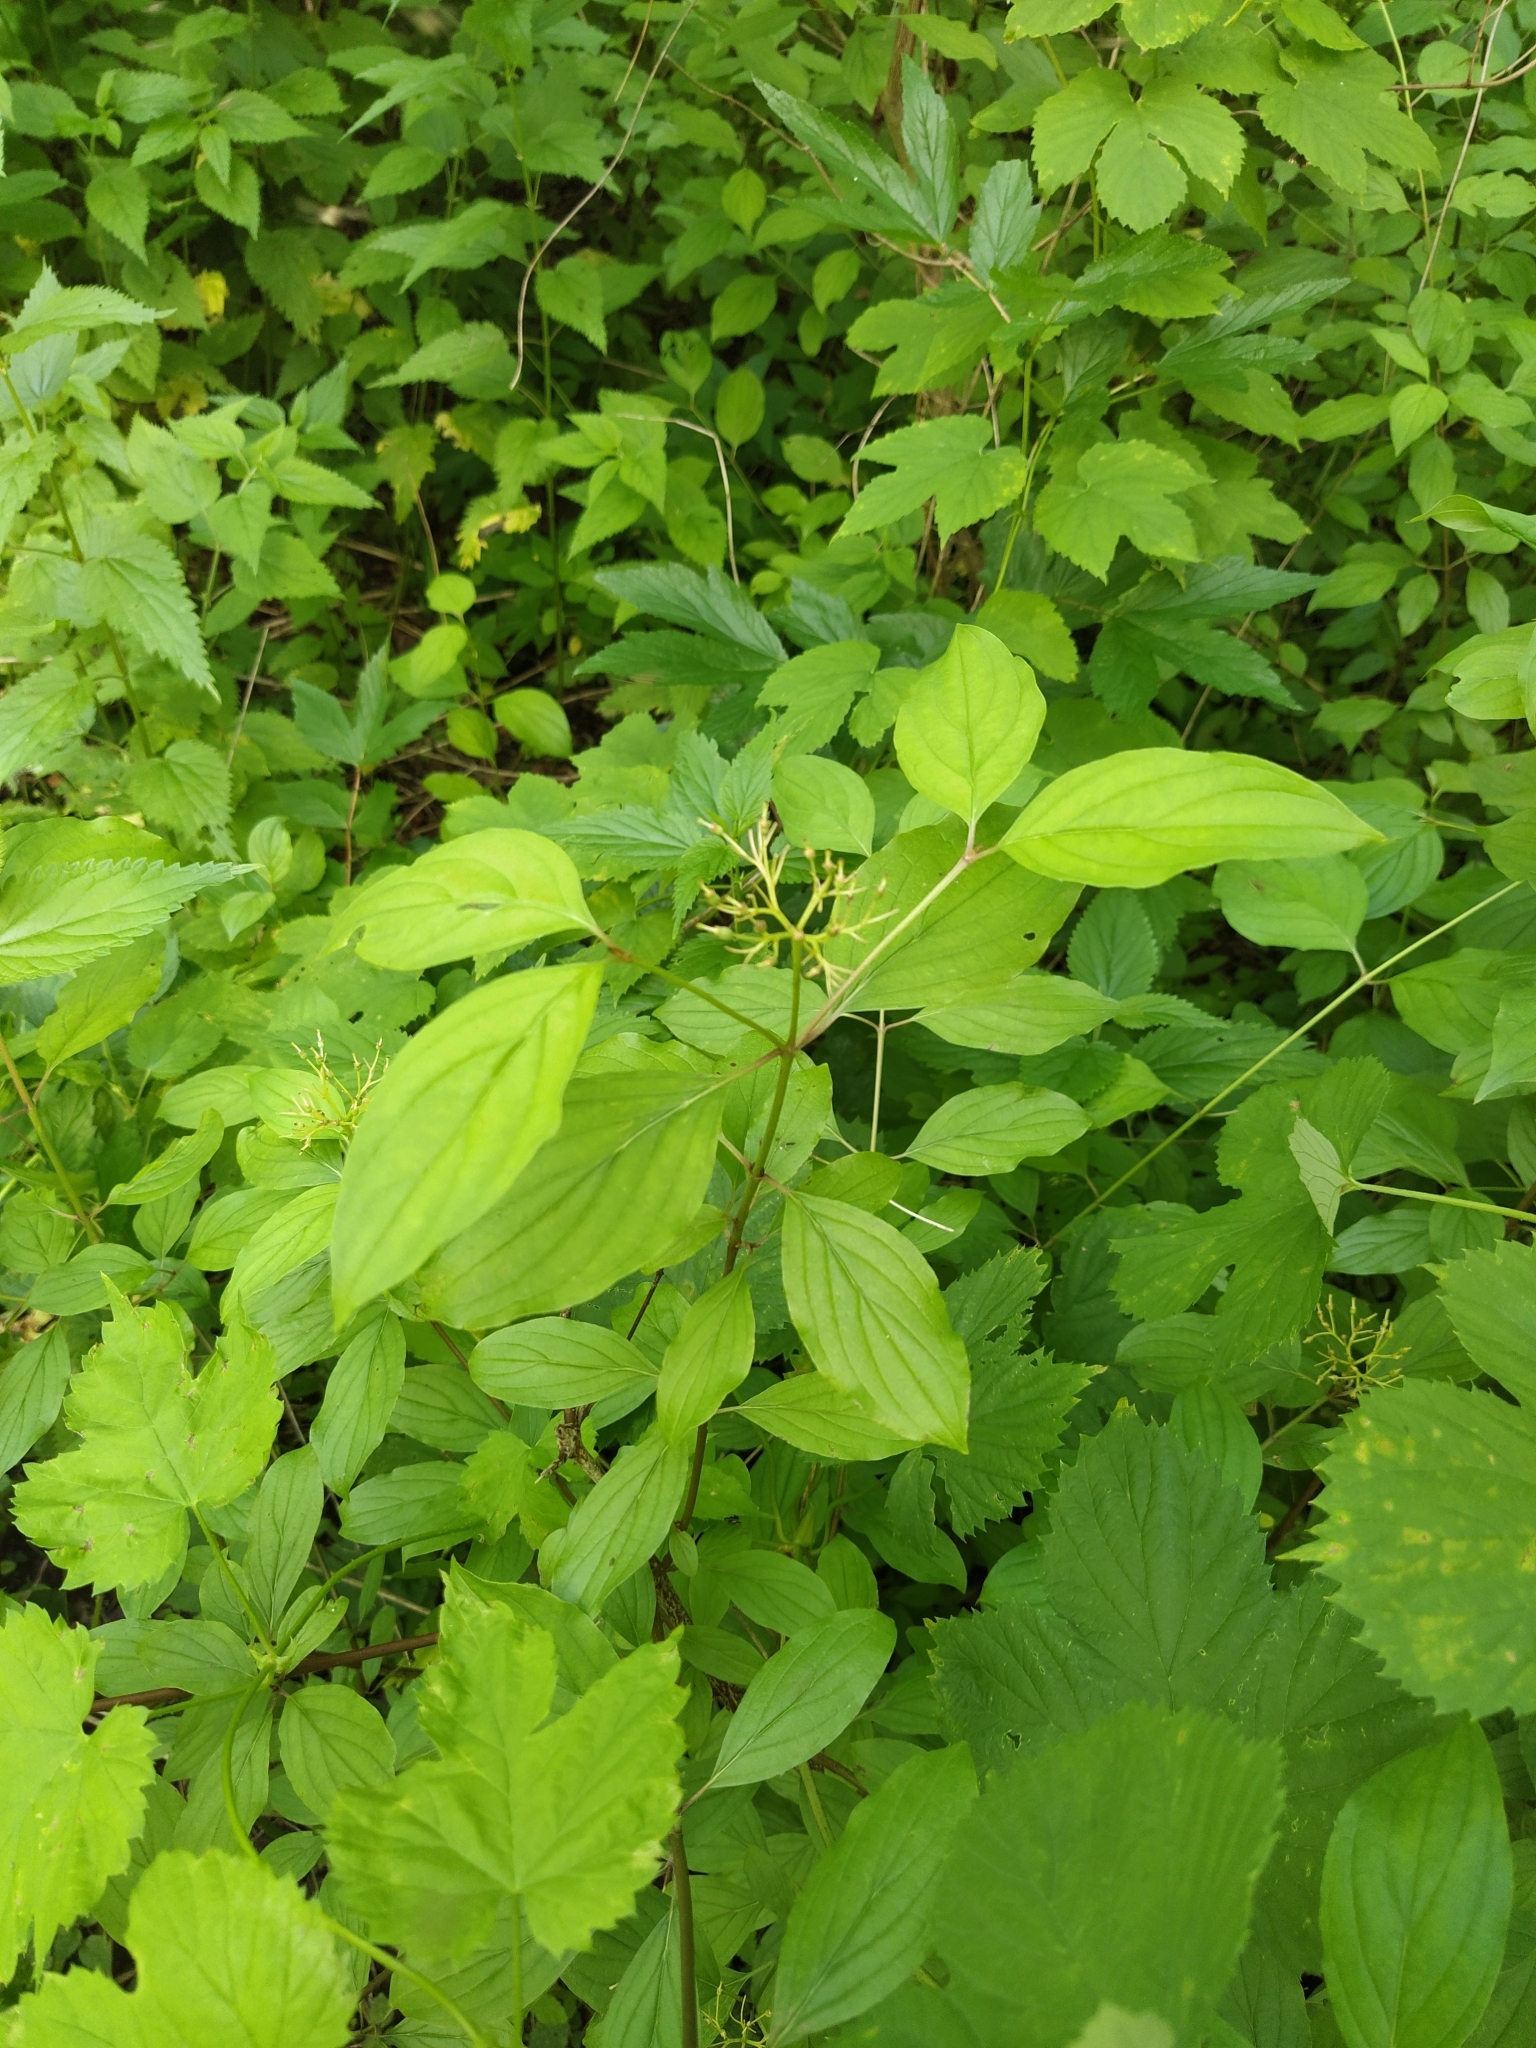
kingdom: Plantae
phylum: Tracheophyta
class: Magnoliopsida
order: Cornales
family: Cornaceae
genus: Cornus
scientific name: Cornus sanguinea
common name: Dogwood
